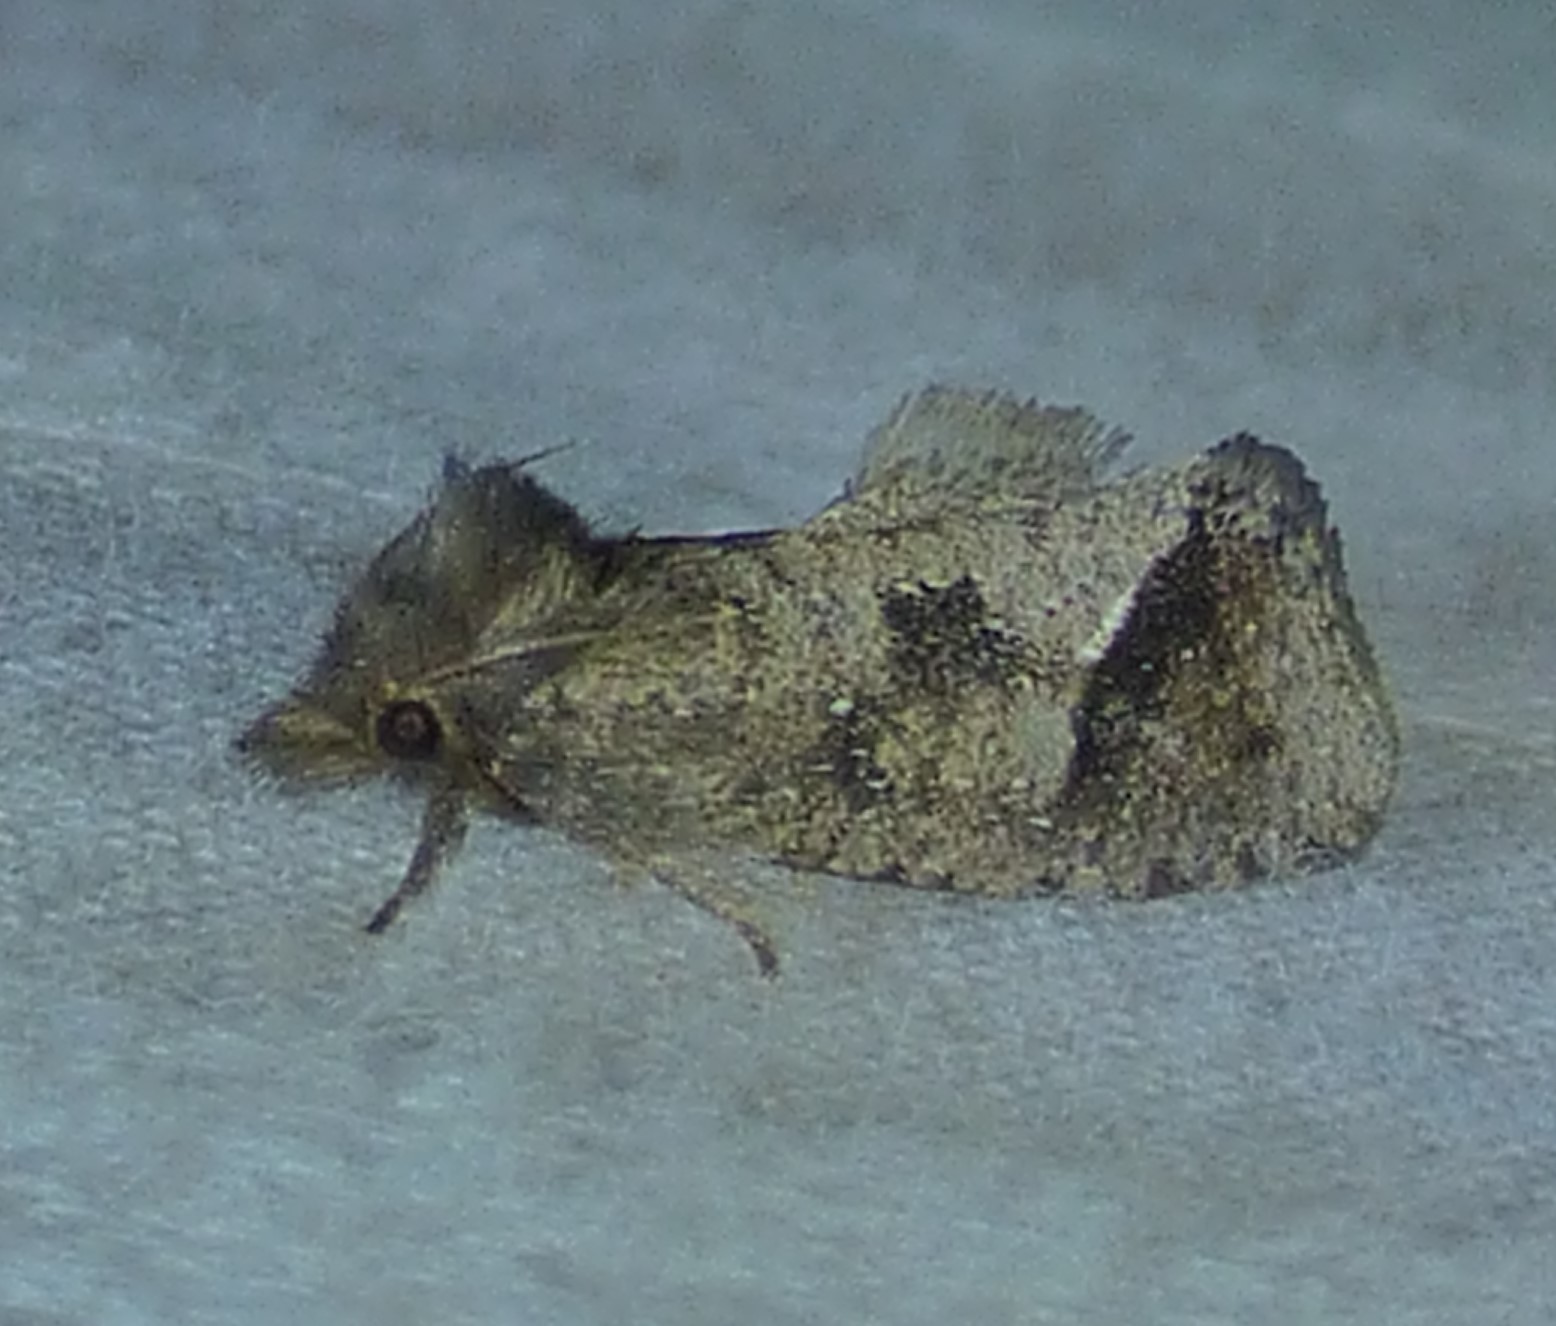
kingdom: Animalia
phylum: Arthropoda
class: Insecta
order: Lepidoptera
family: Tineidae
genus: Acrolophus
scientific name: Acrolophus texanella
